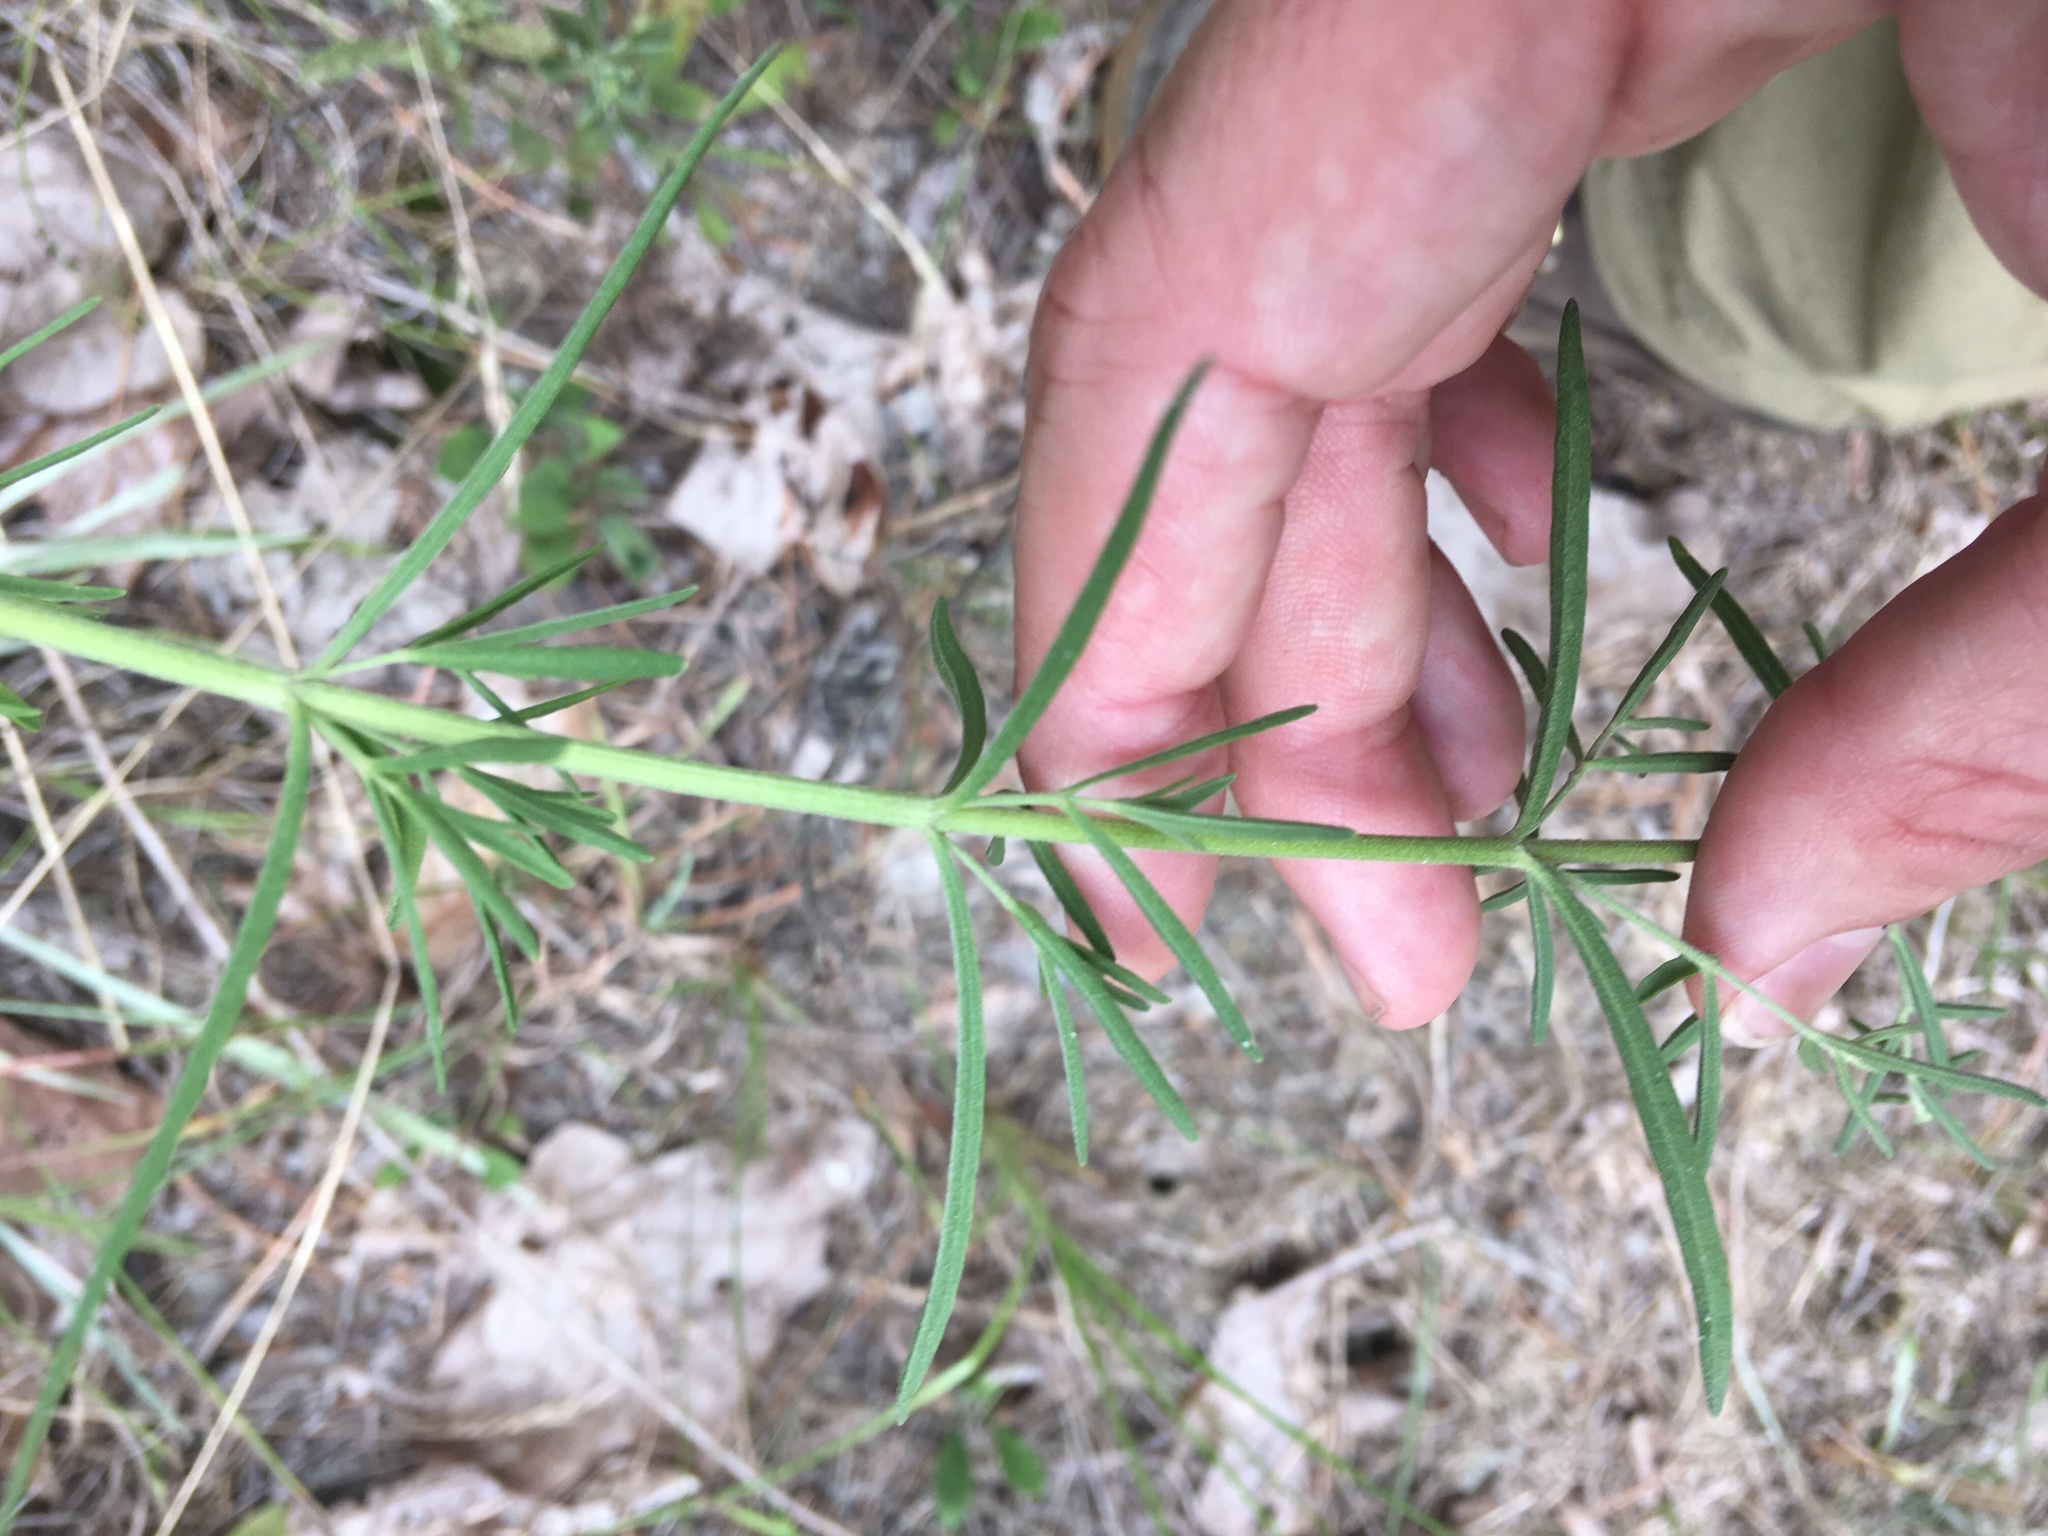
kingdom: Plantae
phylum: Tracheophyta
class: Magnoliopsida
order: Asterales
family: Asteraceae
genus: Eupatorium
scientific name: Eupatorium hyssopifolium
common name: Hyssop-leaf thoroughwort
